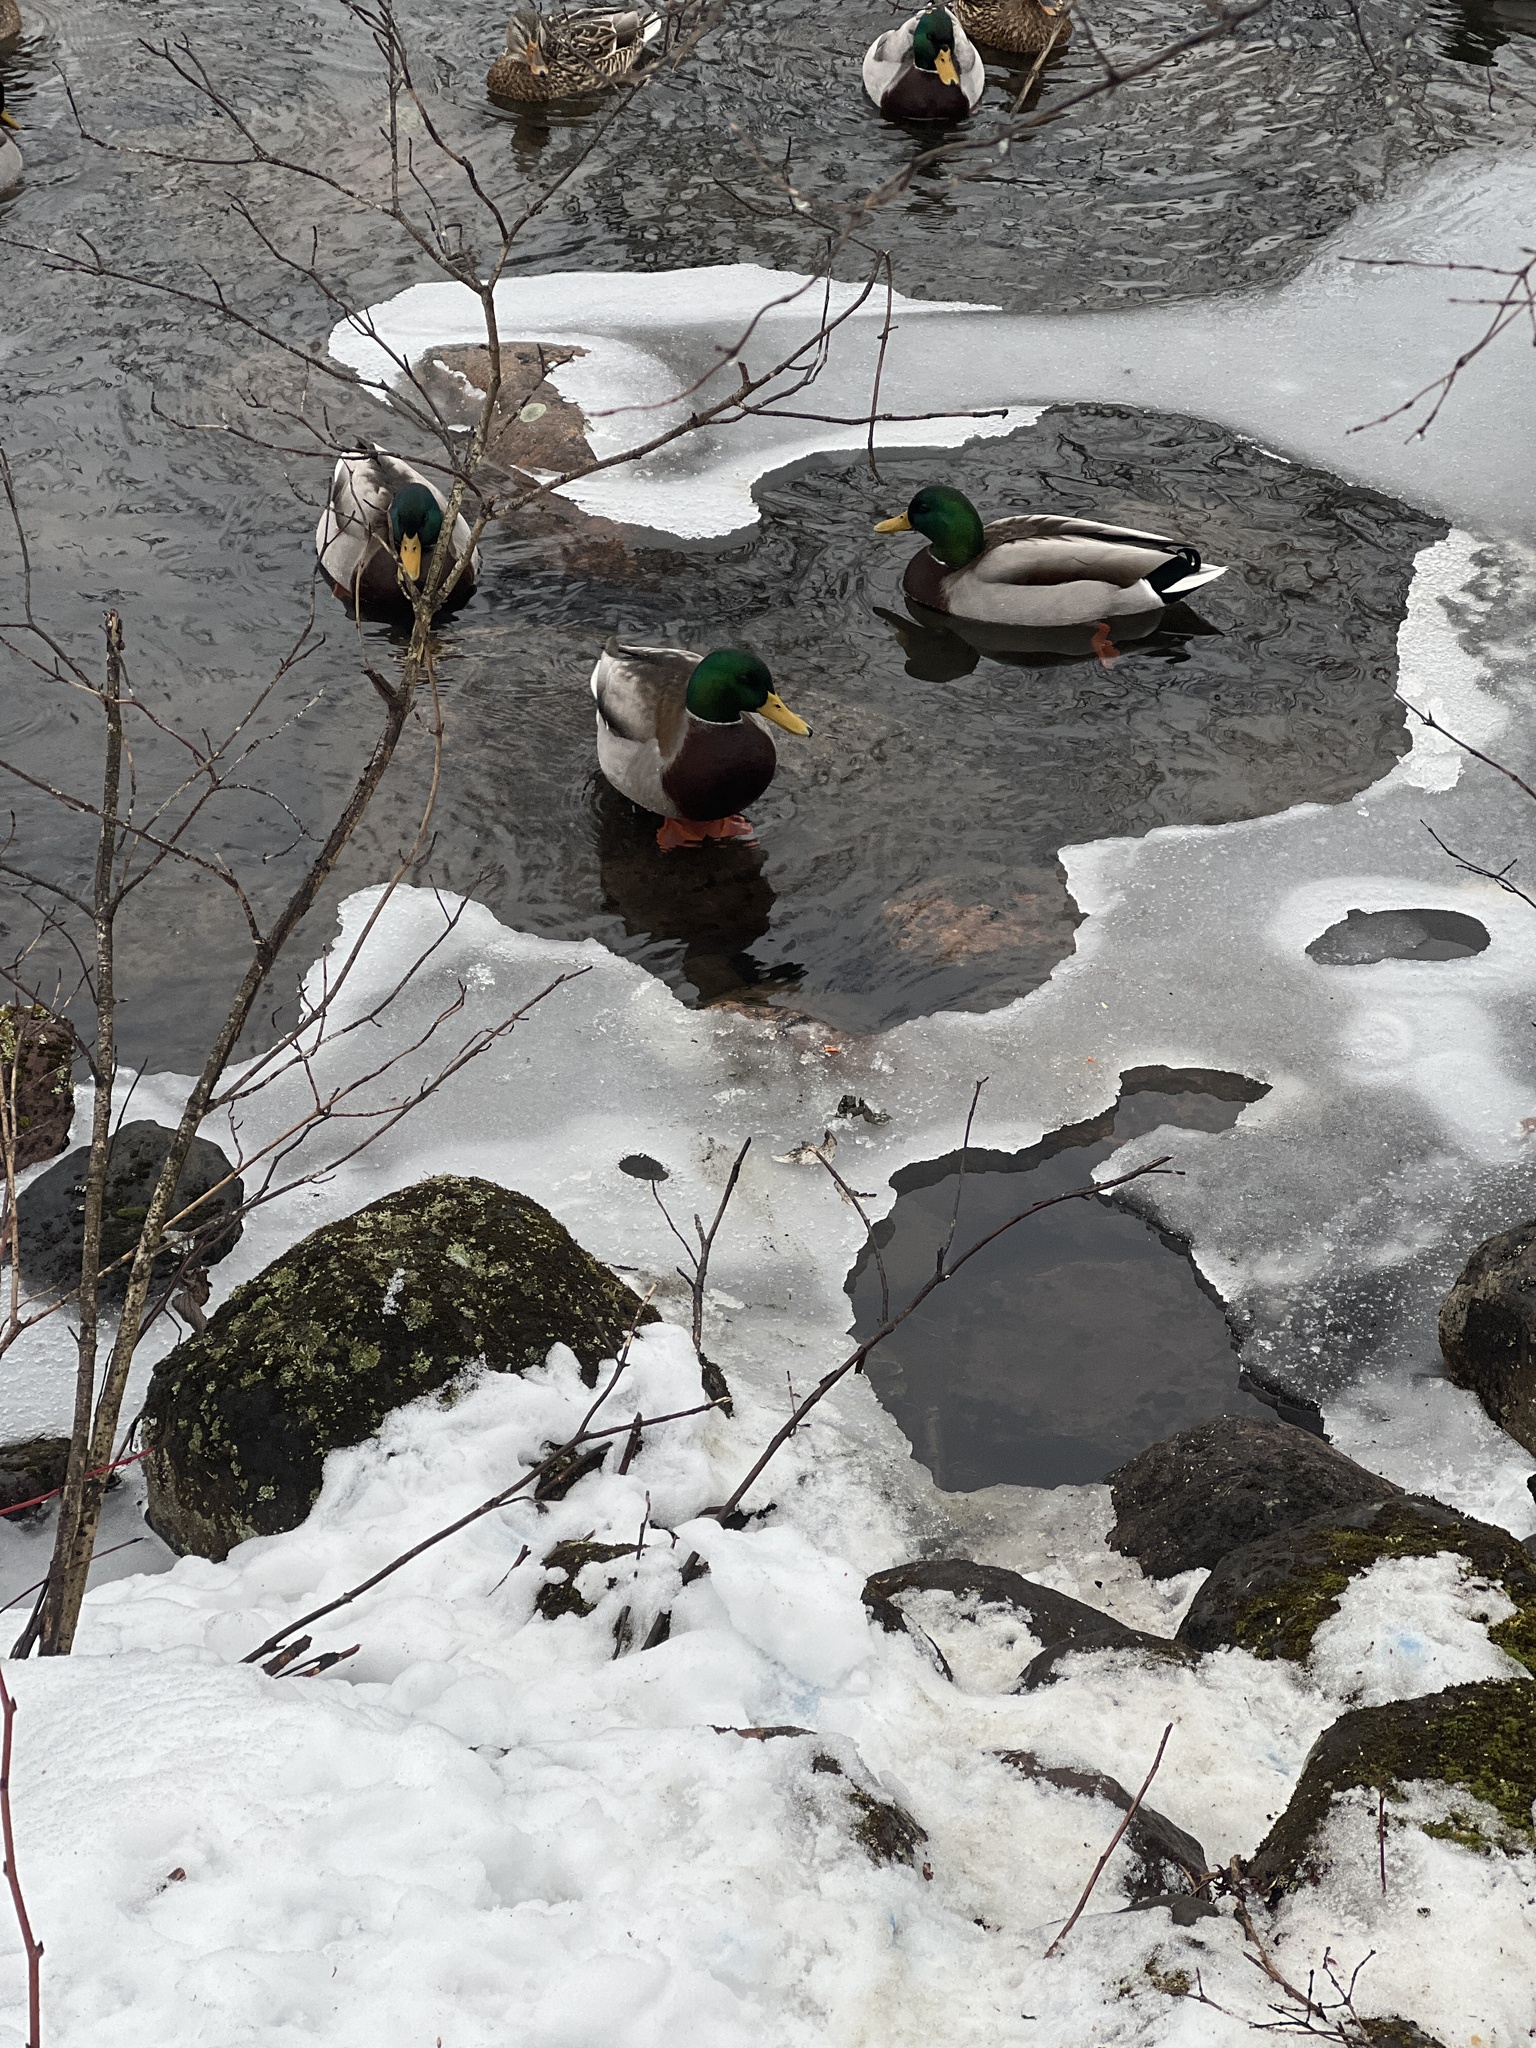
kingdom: Animalia
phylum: Chordata
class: Aves
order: Anseriformes
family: Anatidae
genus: Anas
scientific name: Anas platyrhynchos
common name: Mallard
